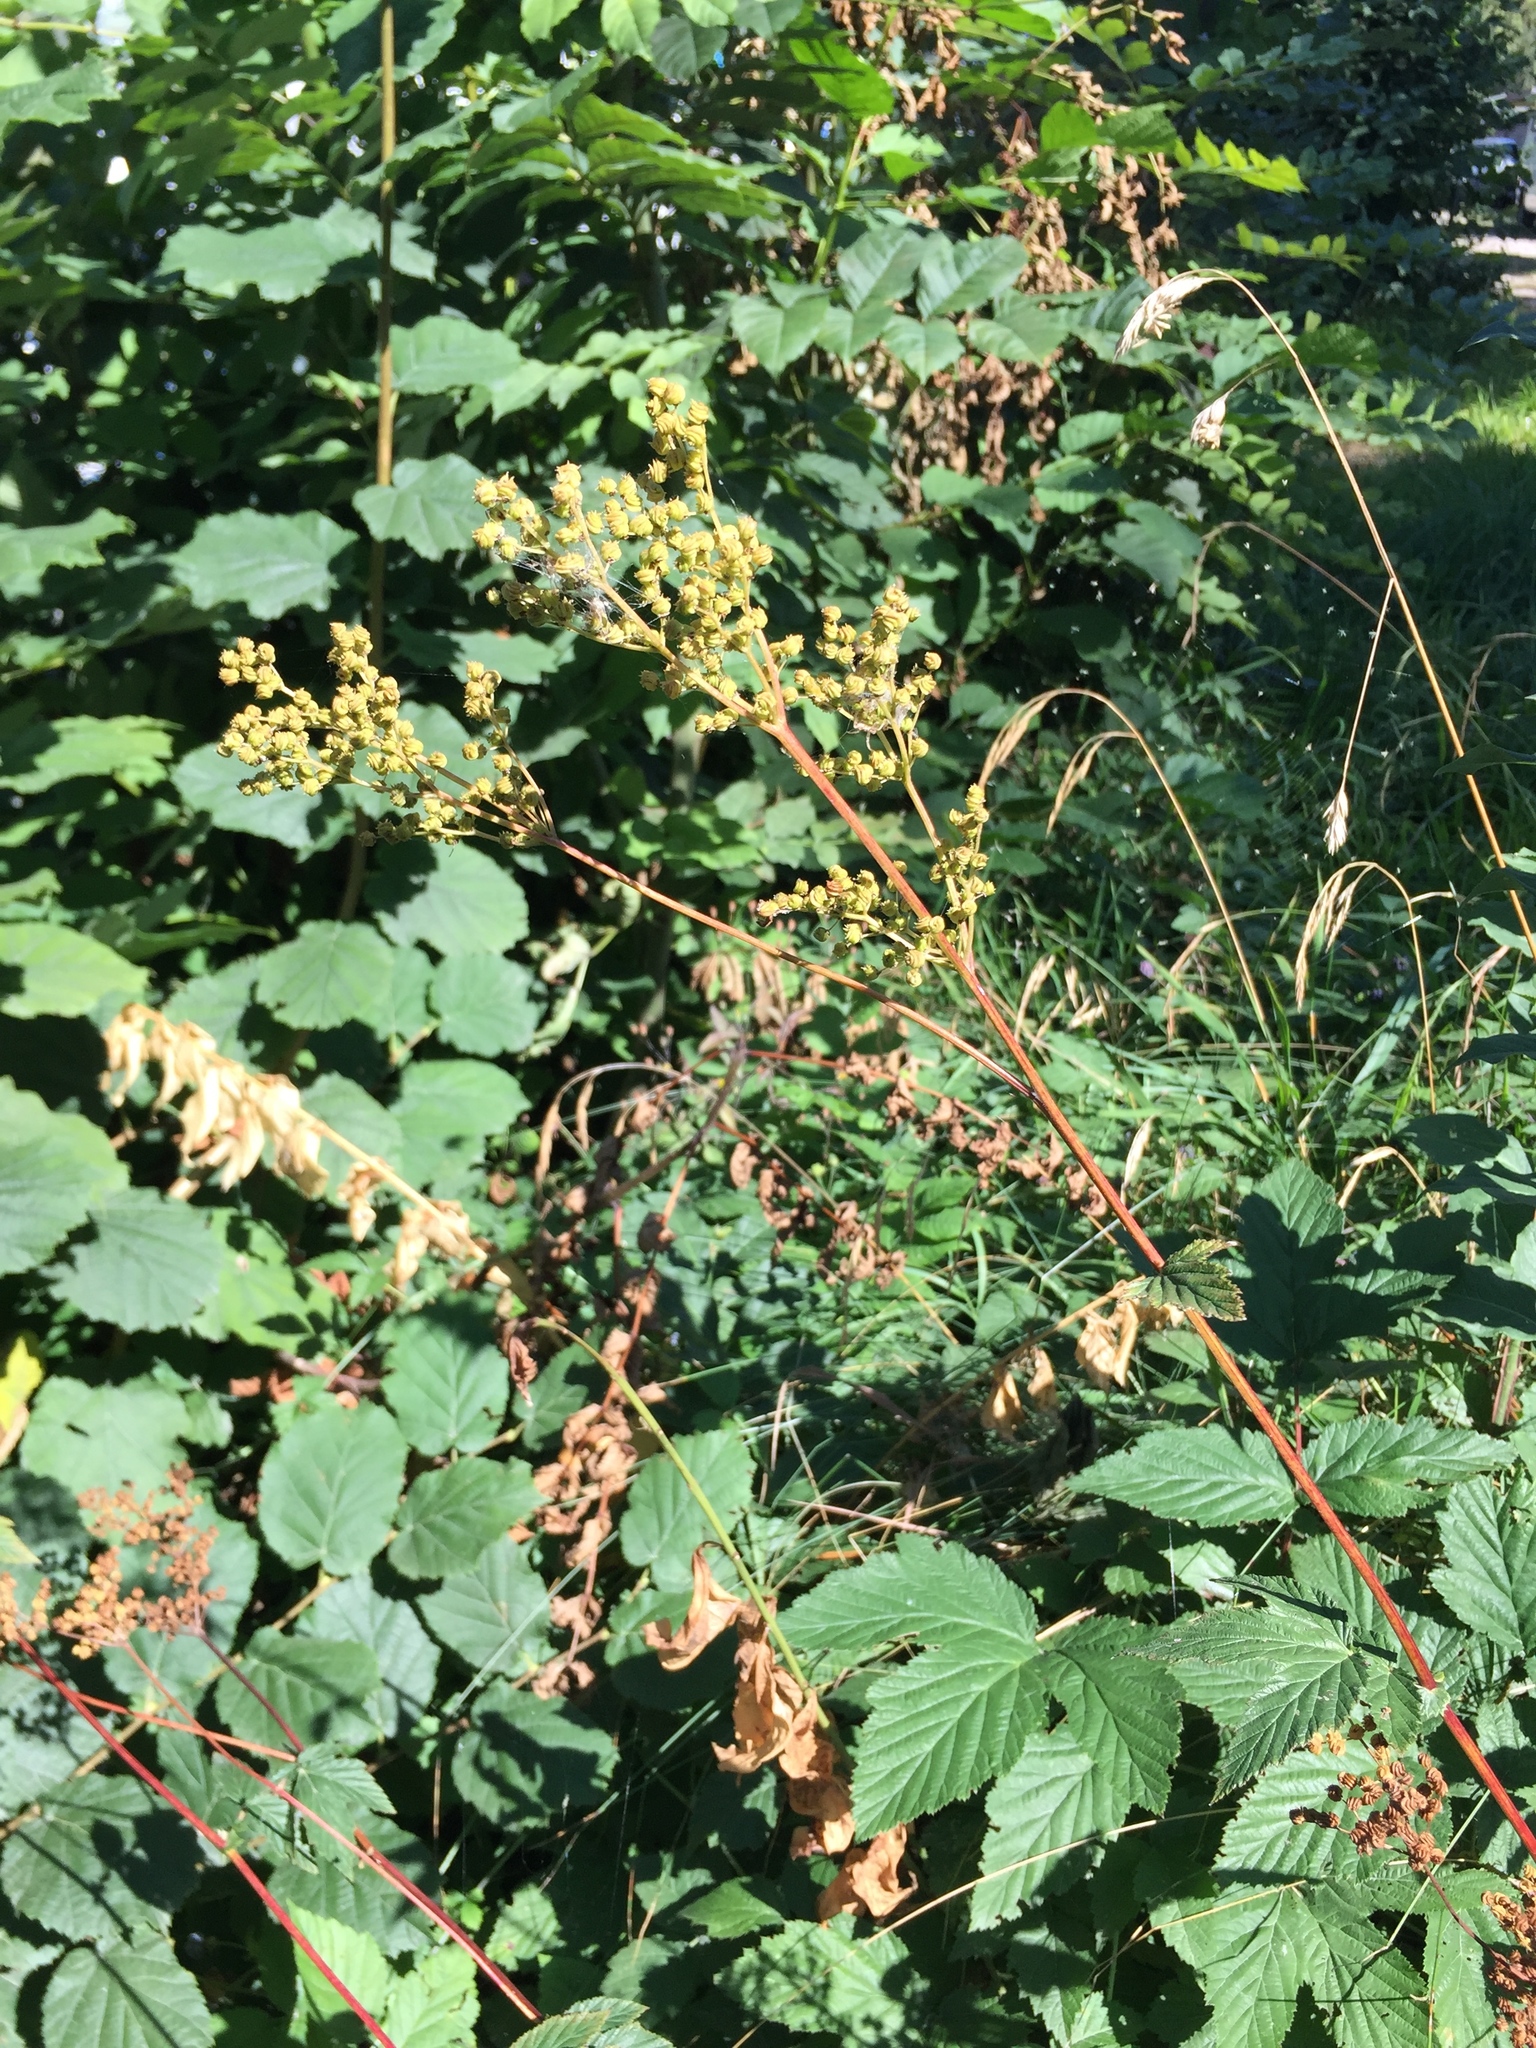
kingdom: Plantae
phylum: Tracheophyta
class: Magnoliopsida
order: Rosales
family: Rosaceae
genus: Filipendula
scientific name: Filipendula ulmaria
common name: Meadowsweet
